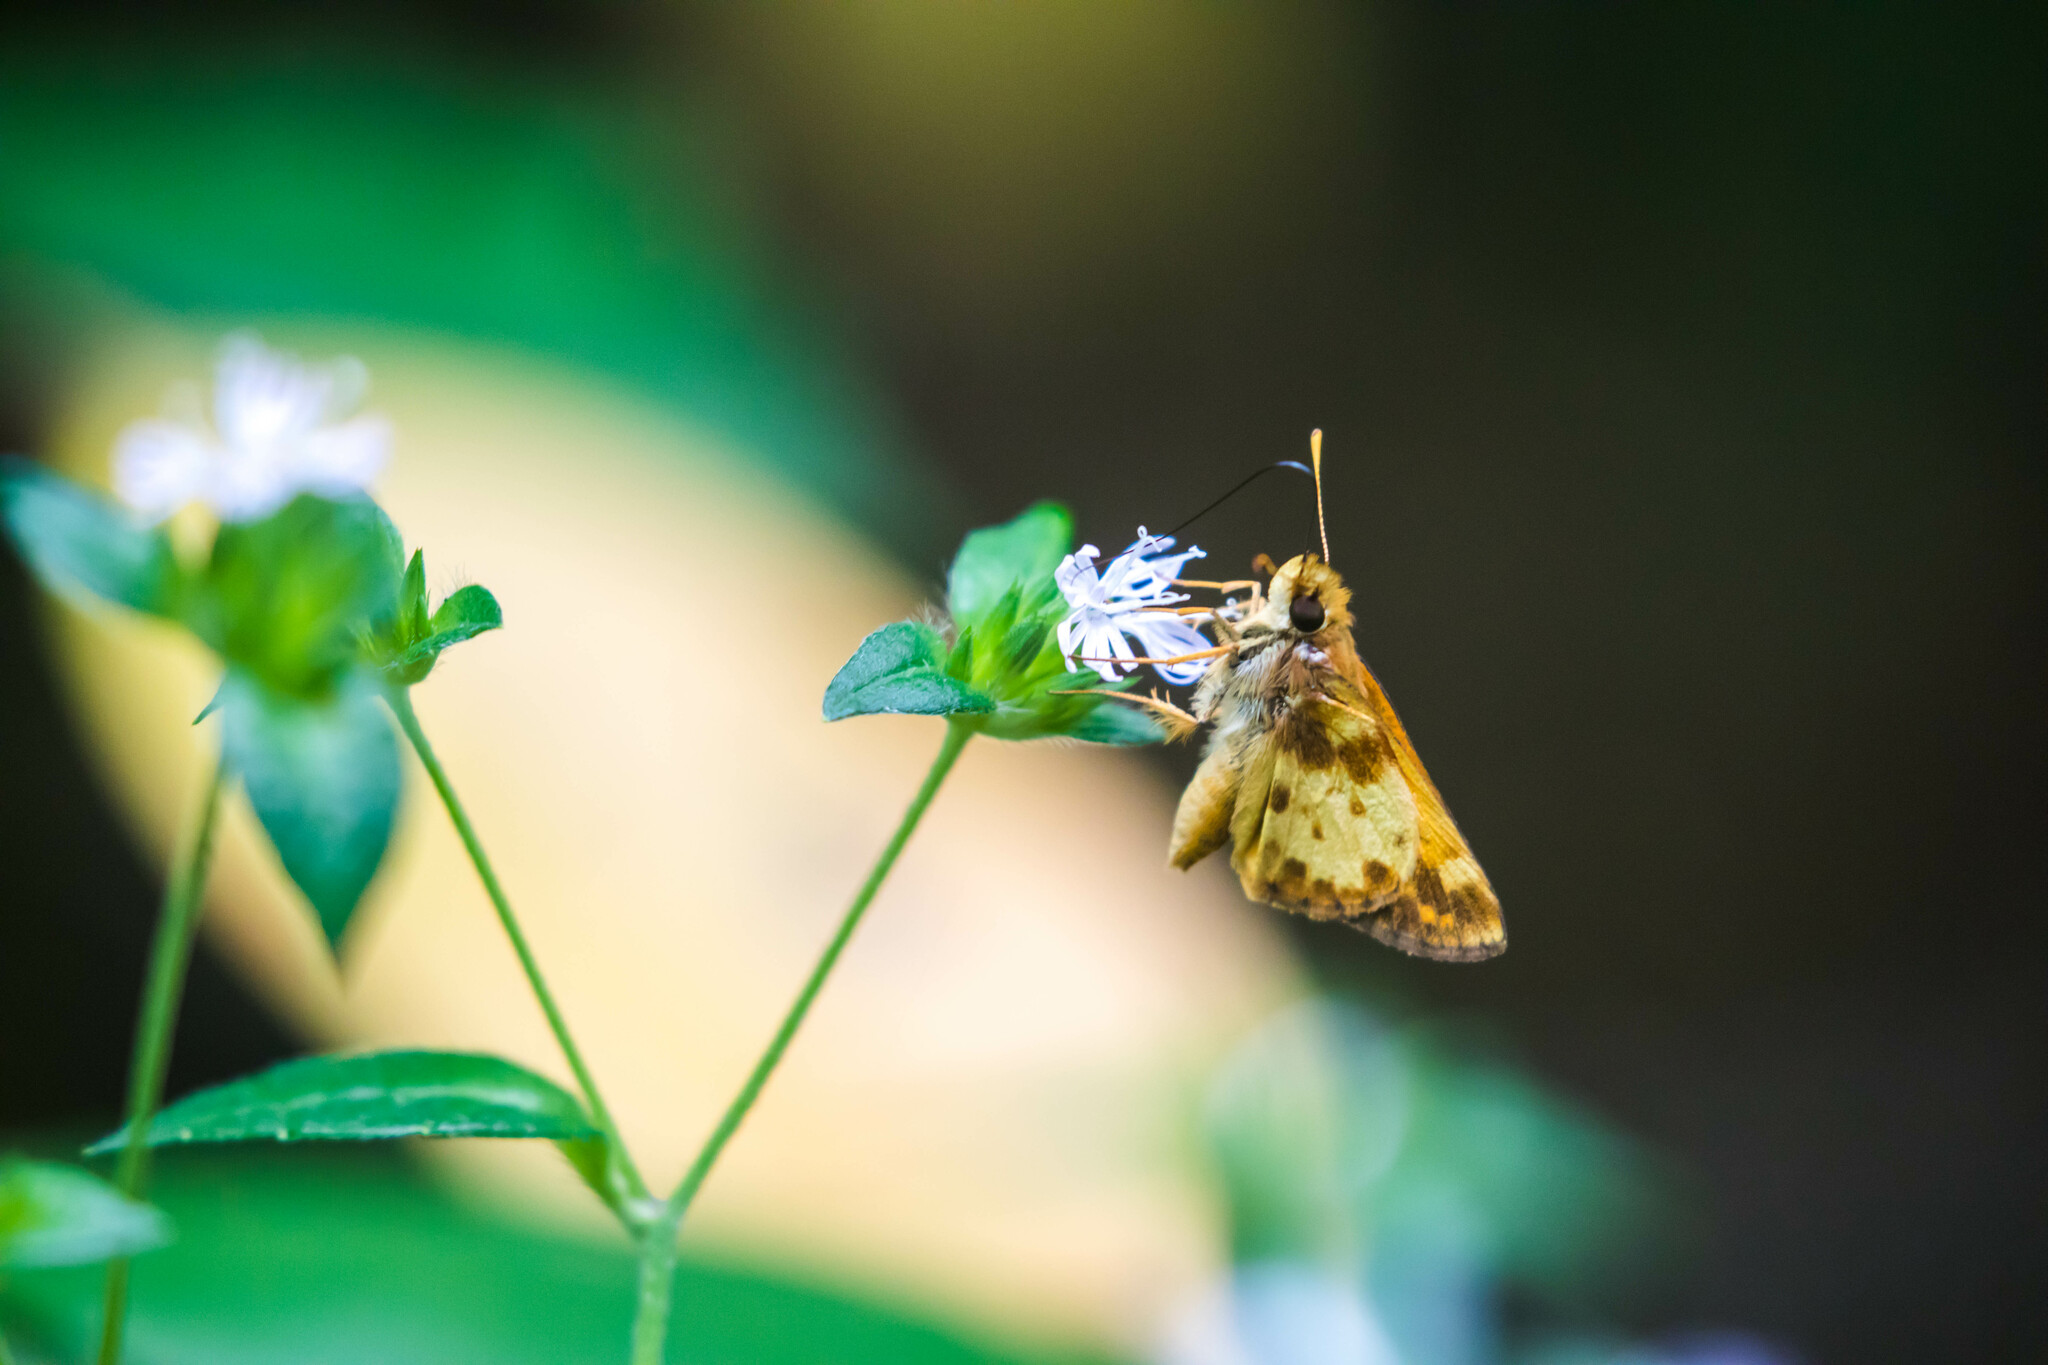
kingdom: Animalia
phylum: Arthropoda
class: Insecta
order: Lepidoptera
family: Hesperiidae
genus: Lon
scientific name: Lon zabulon
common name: Zabulon skipper
